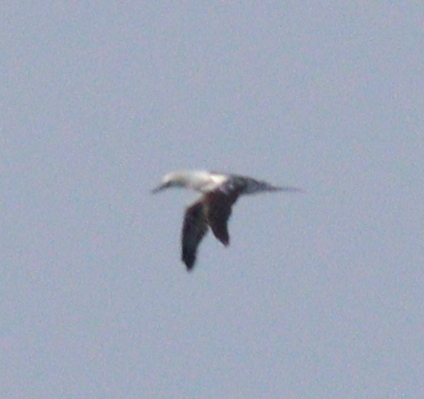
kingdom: Animalia
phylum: Chordata
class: Aves
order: Suliformes
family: Sulidae
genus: Morus
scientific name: Morus bassanus
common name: Northern gannet
